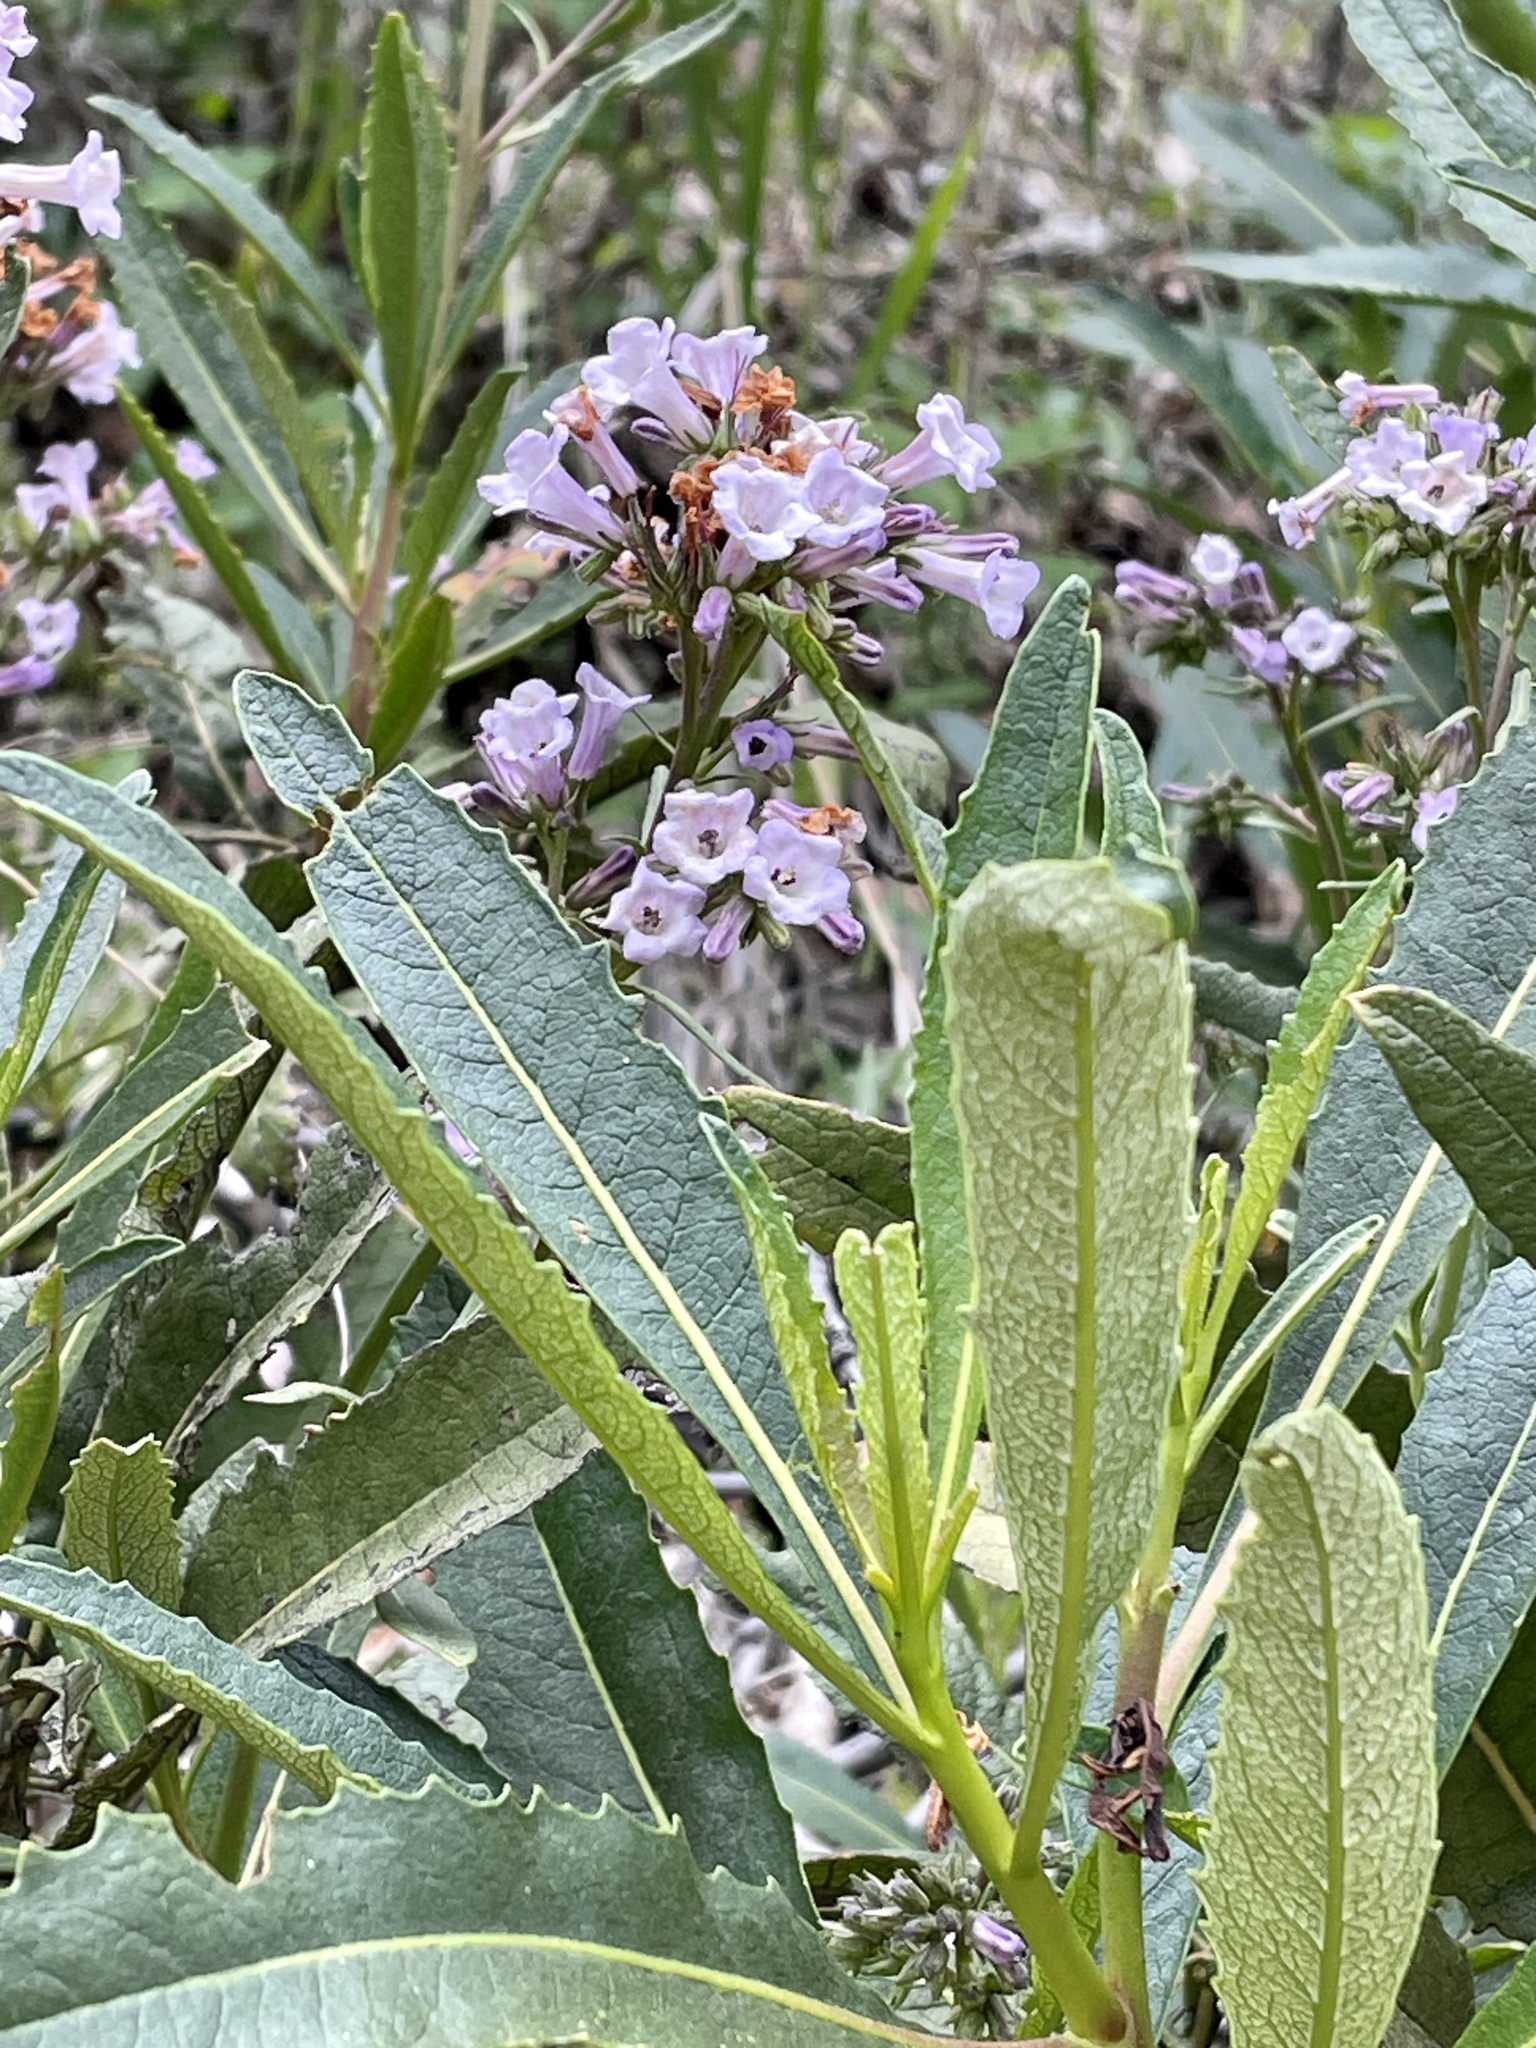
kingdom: Plantae
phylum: Tracheophyta
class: Magnoliopsida
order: Boraginales
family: Namaceae
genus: Eriodictyon
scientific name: Eriodictyon californicum
